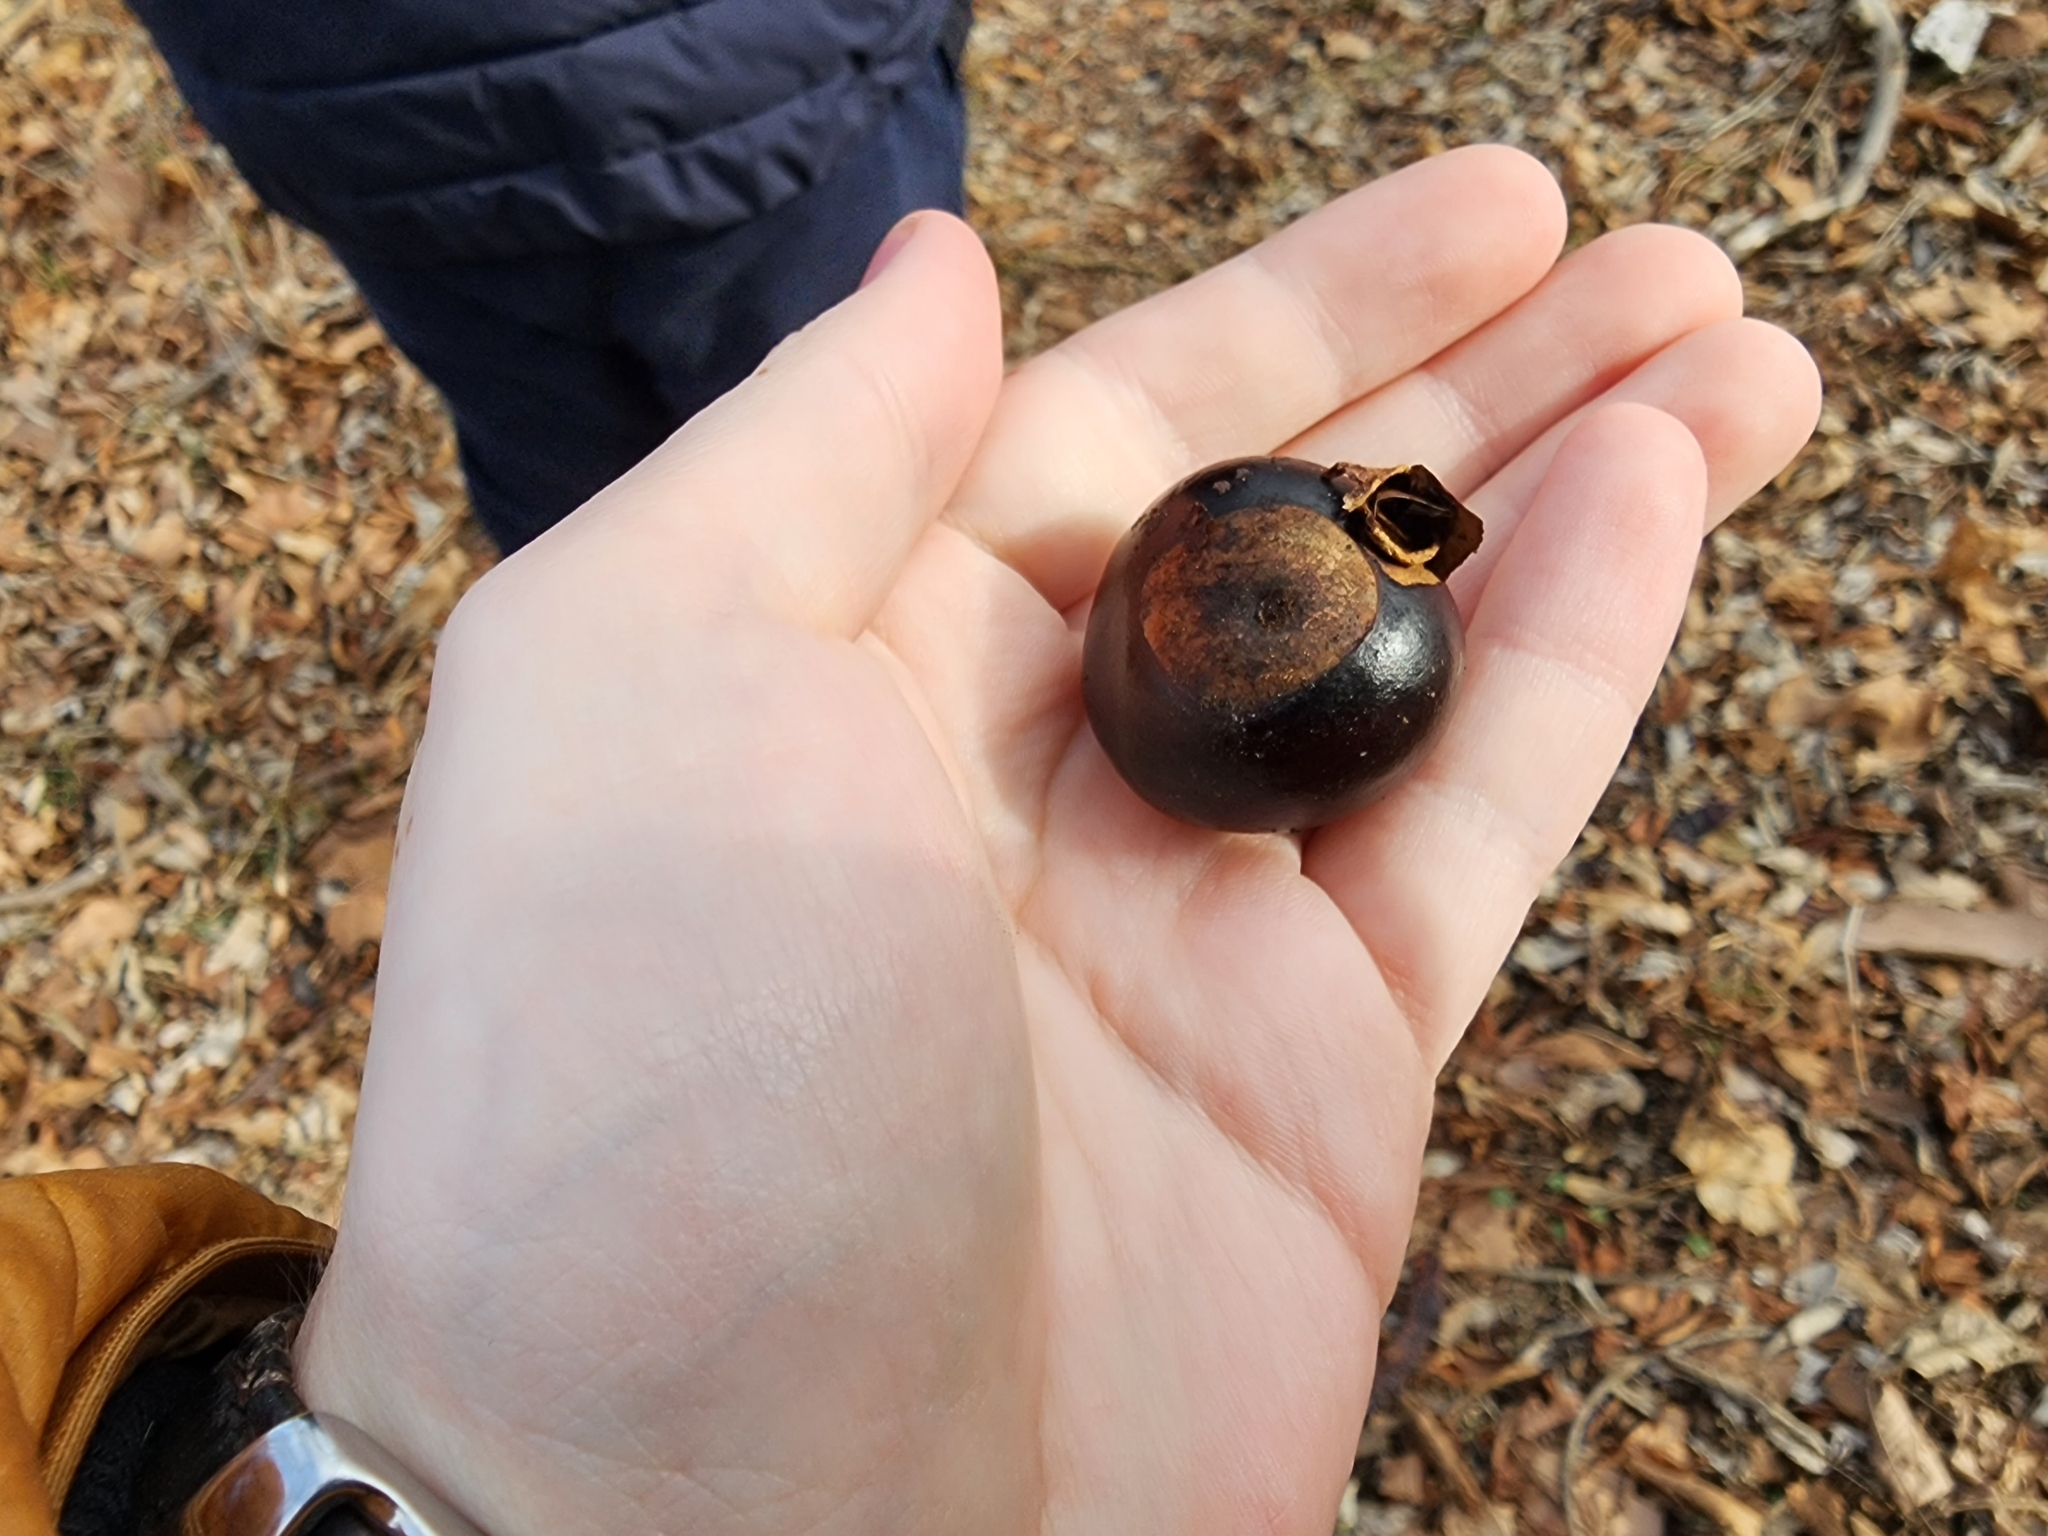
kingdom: Plantae
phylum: Tracheophyta
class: Magnoliopsida
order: Sapindales
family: Sapindaceae
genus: Aesculus
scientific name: Aesculus glabra
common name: Ohio buckeye
